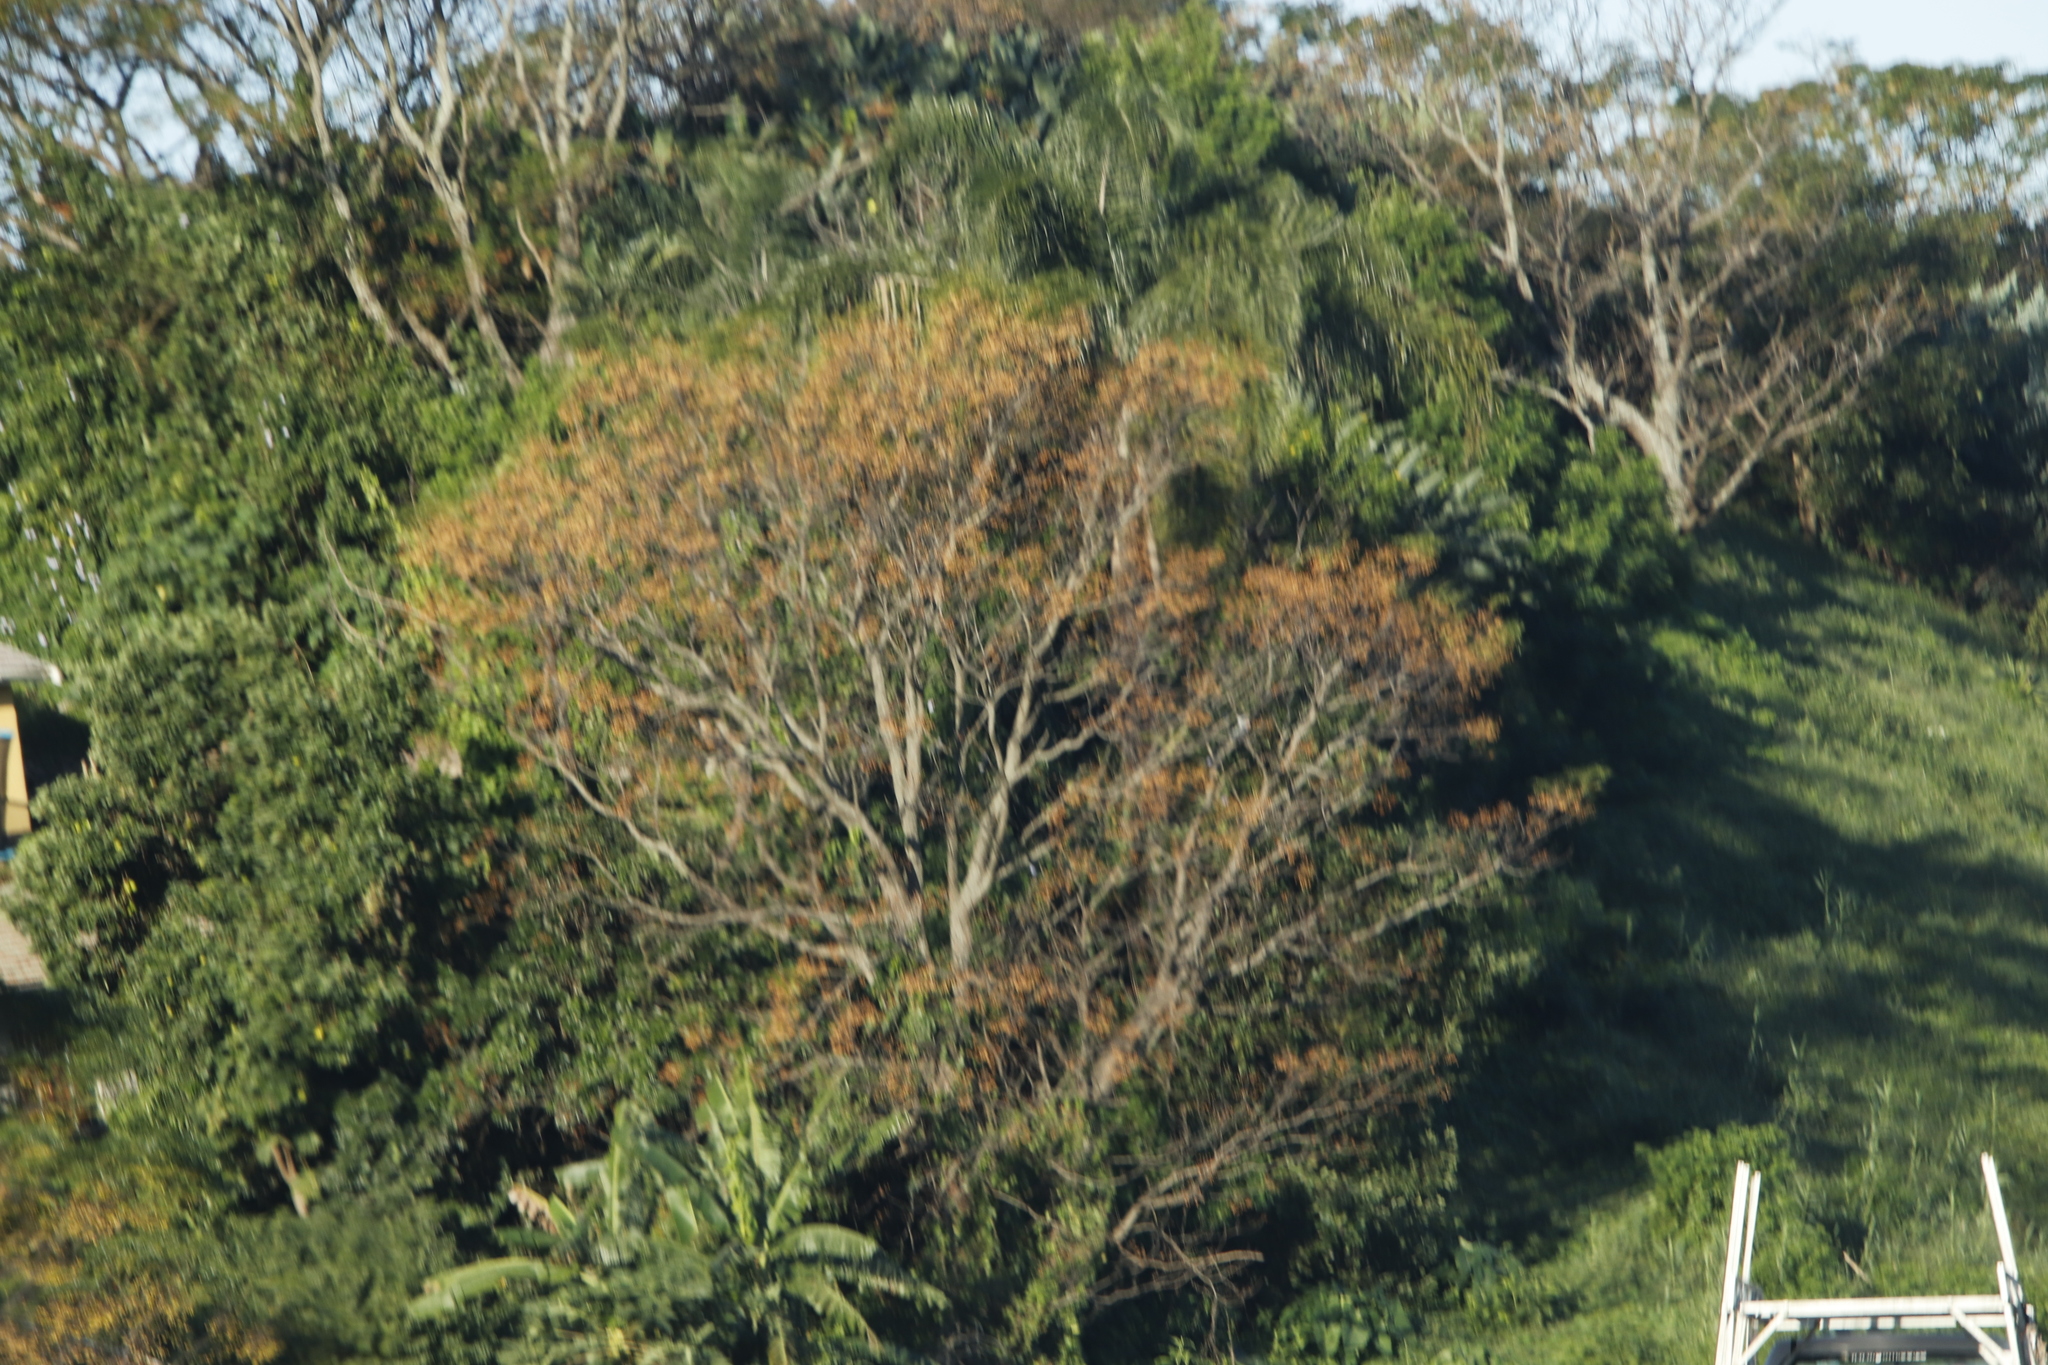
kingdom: Plantae
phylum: Tracheophyta
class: Magnoliopsida
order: Sapindales
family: Meliaceae
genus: Melia
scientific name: Melia azedarach
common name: Chinaberrytree
